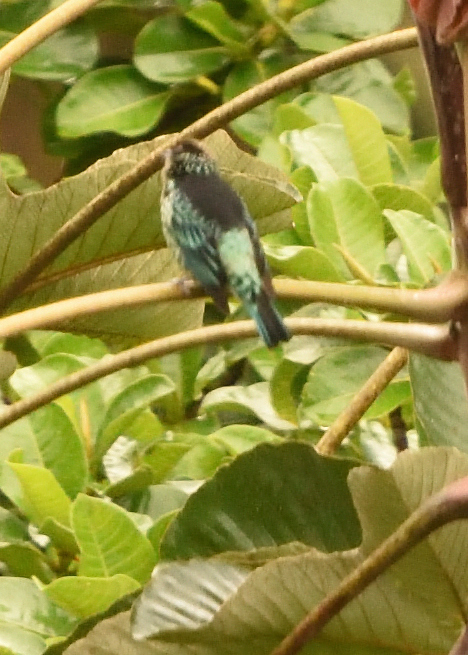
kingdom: Animalia
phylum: Chordata
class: Aves
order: Passeriformes
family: Thraupidae
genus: Tangara
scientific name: Tangara nigroviridis
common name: Beryl-spangled tanager
